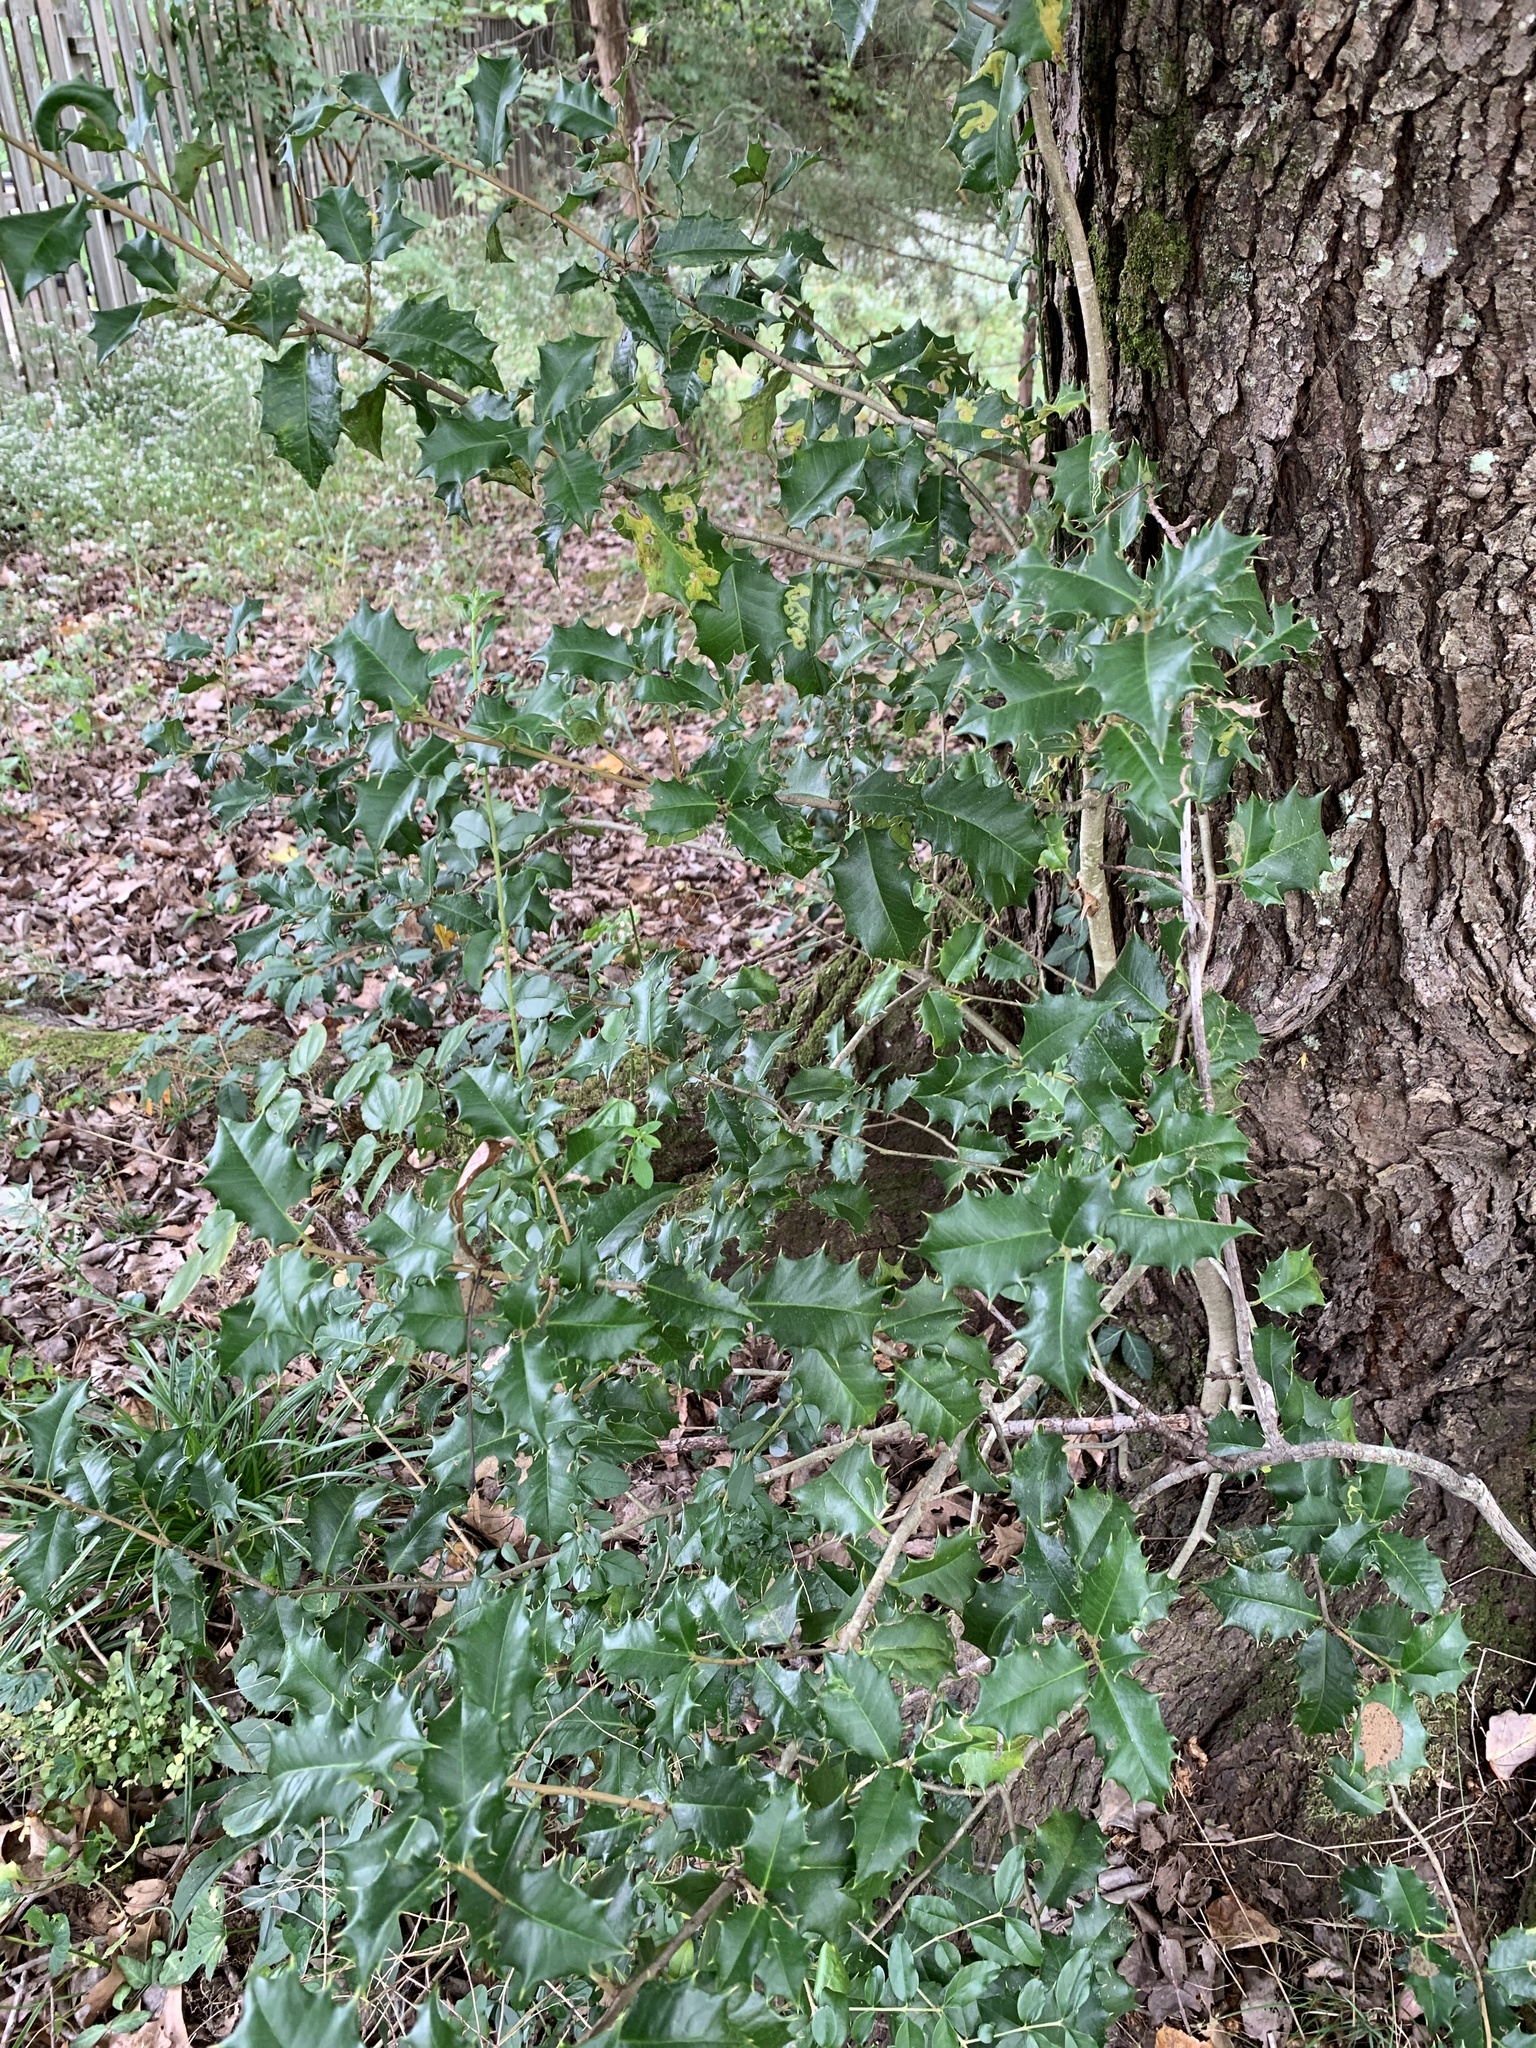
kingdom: Plantae
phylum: Tracheophyta
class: Magnoliopsida
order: Aquifoliales
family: Aquifoliaceae
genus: Ilex
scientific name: Ilex opaca
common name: American holly
